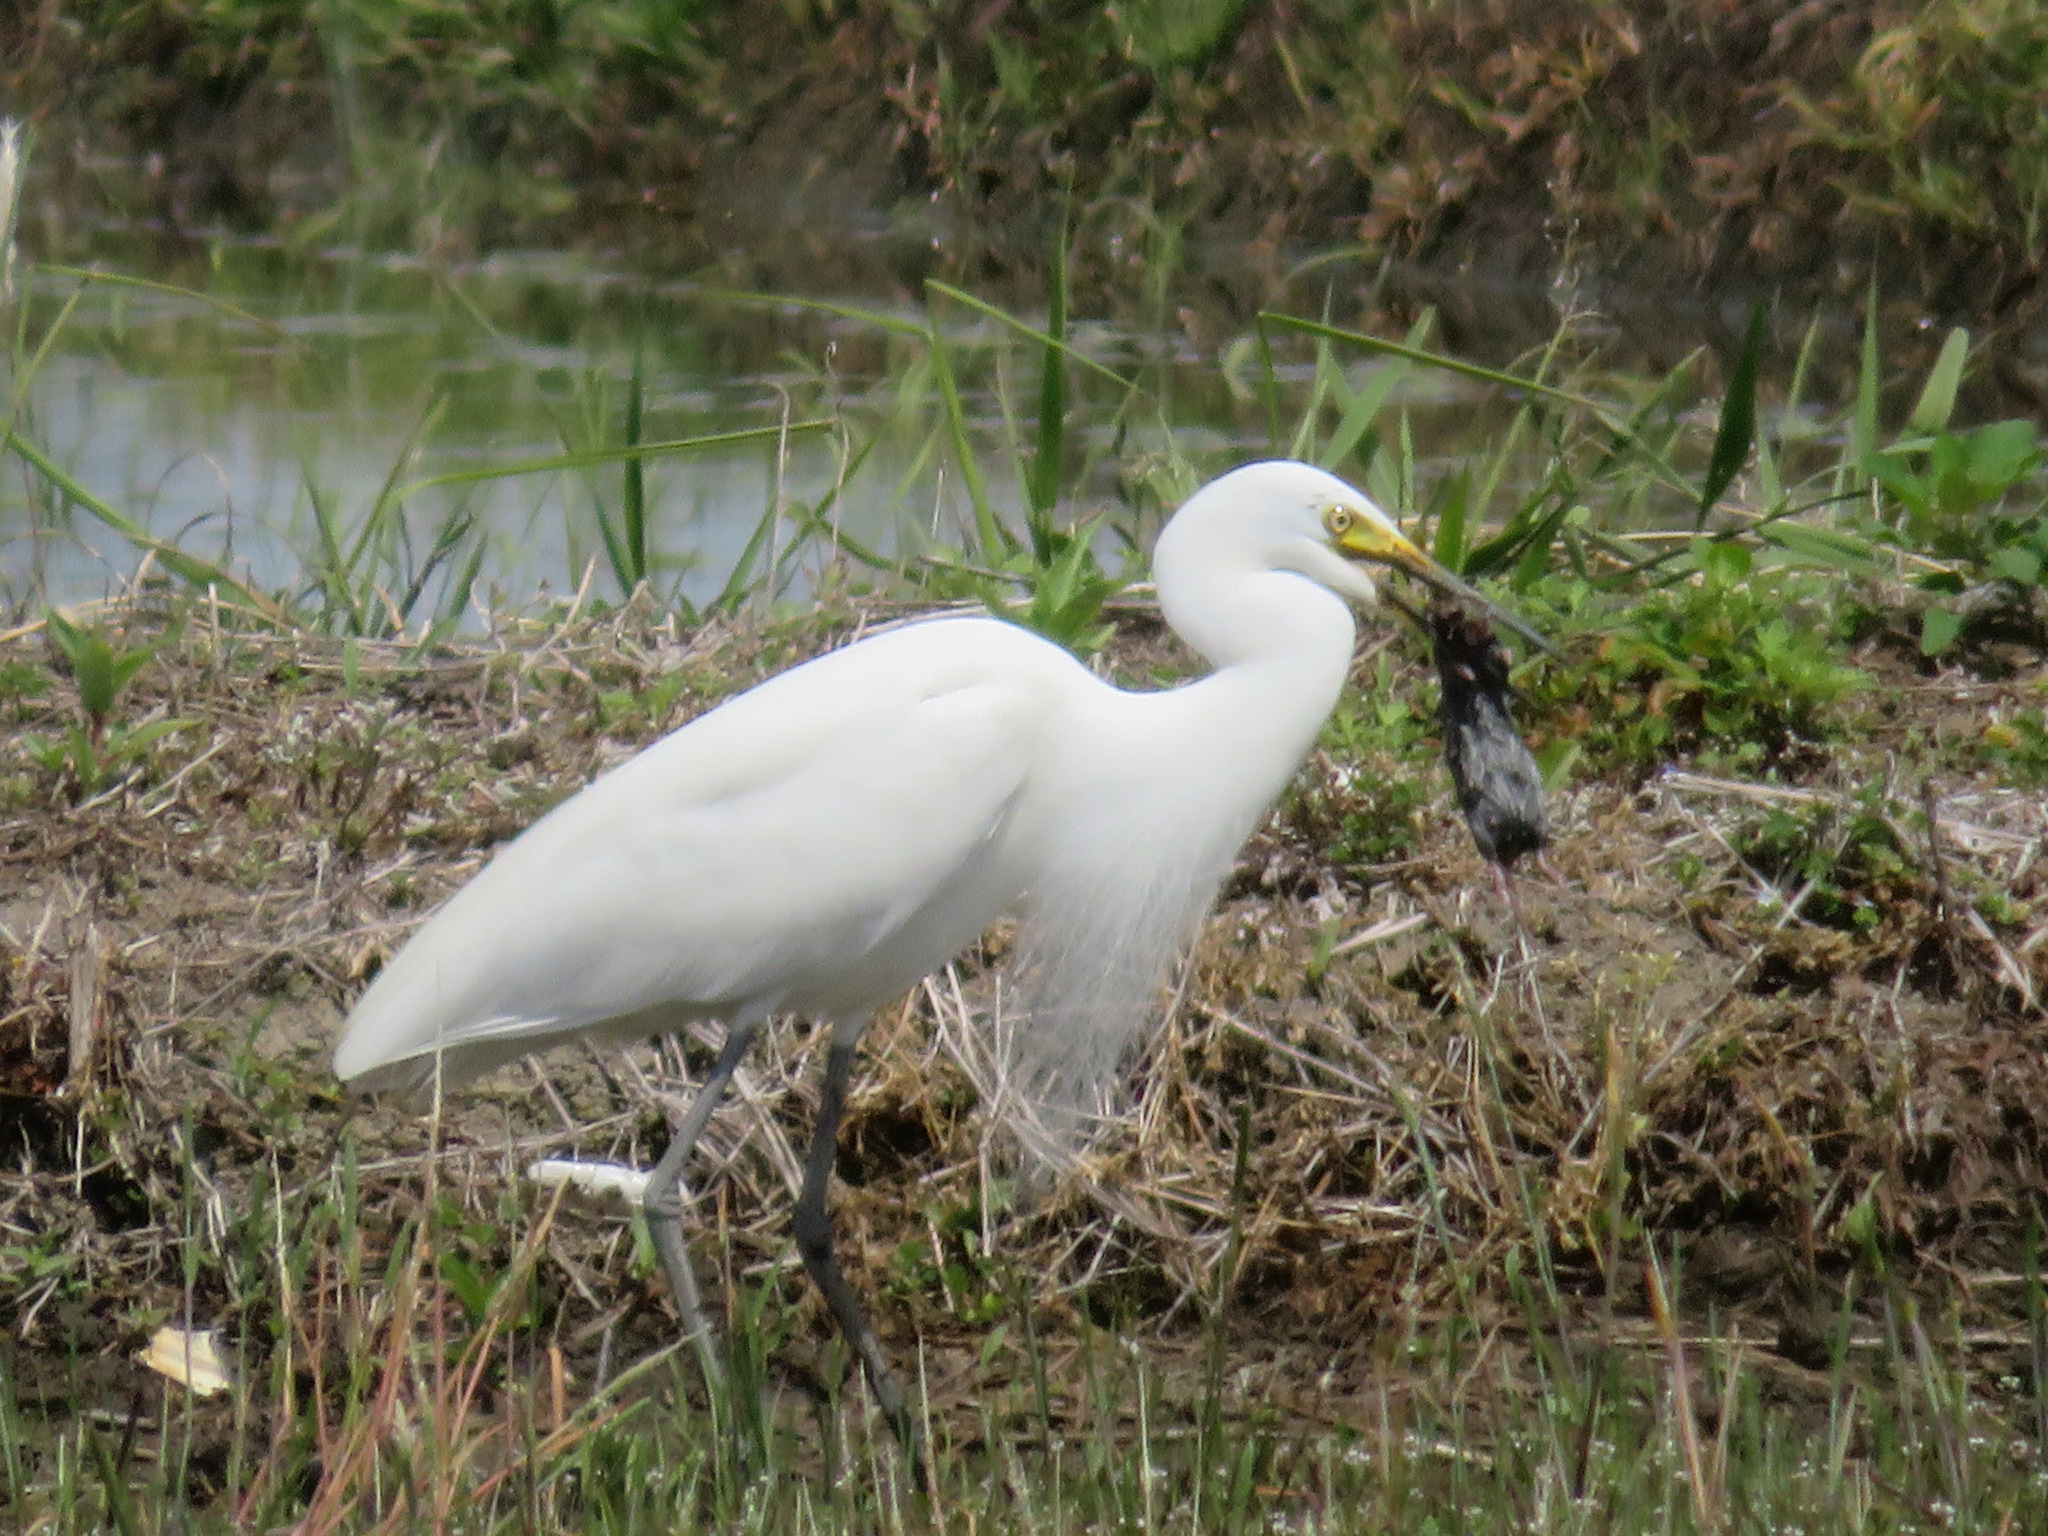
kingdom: Animalia
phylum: Chordata
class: Aves
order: Pelecaniformes
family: Ardeidae
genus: Ardea
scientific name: Ardea alba
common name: Great egret
